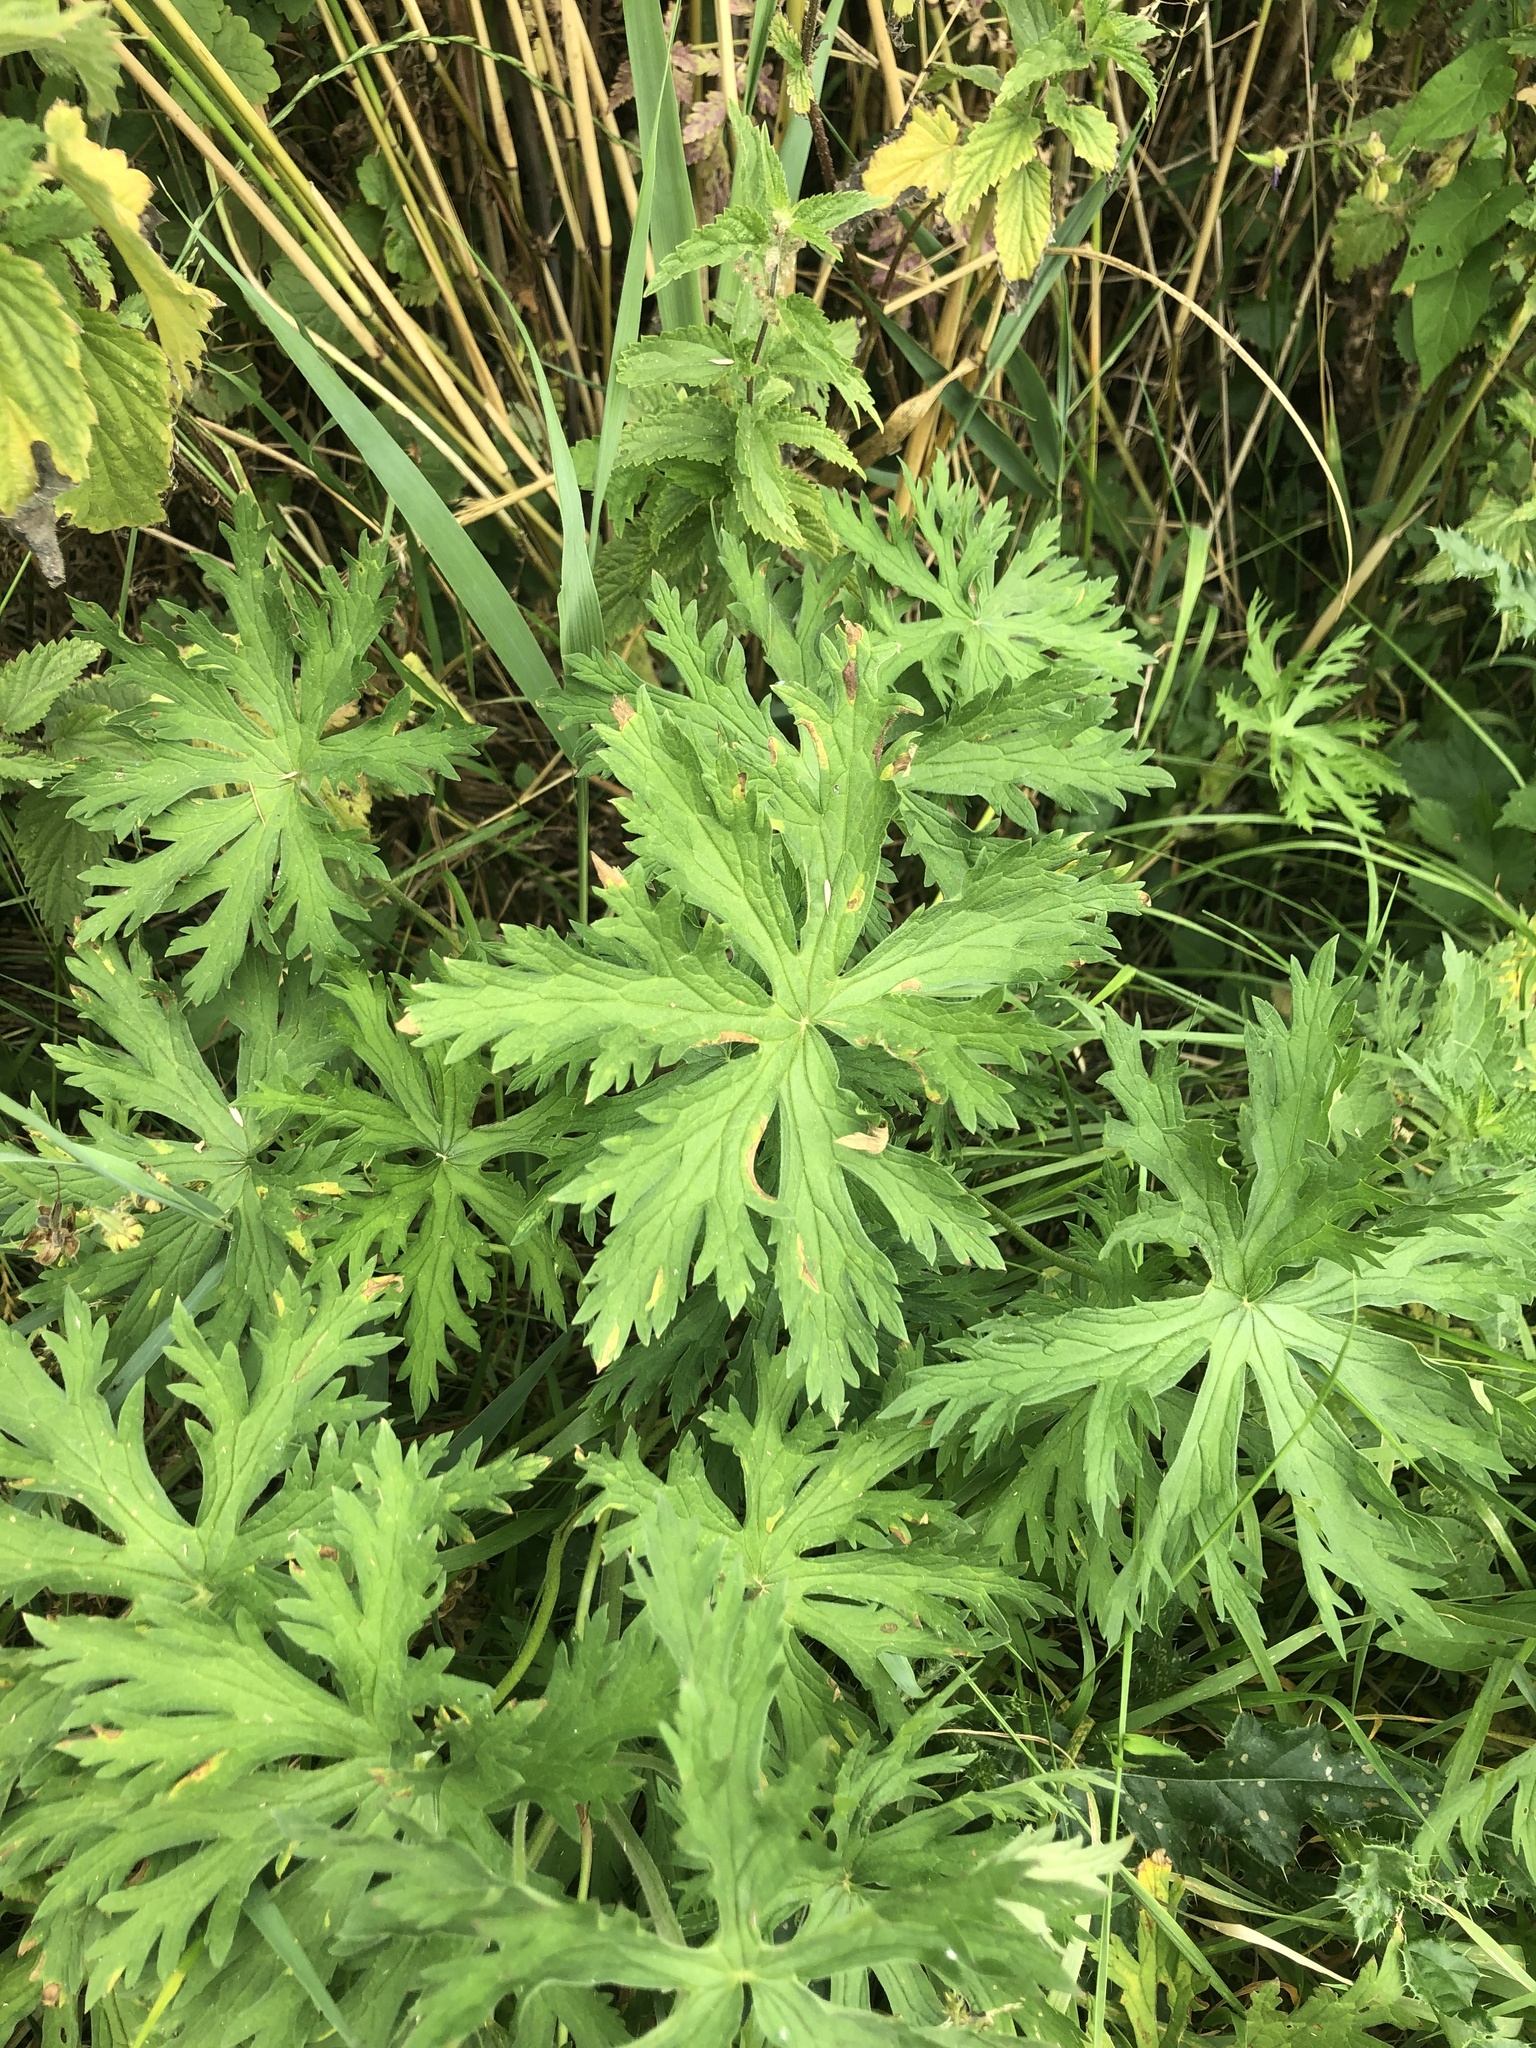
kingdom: Plantae
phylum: Tracheophyta
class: Magnoliopsida
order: Geraniales
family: Geraniaceae
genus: Geranium
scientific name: Geranium pratense
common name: Meadow crane's-bill
